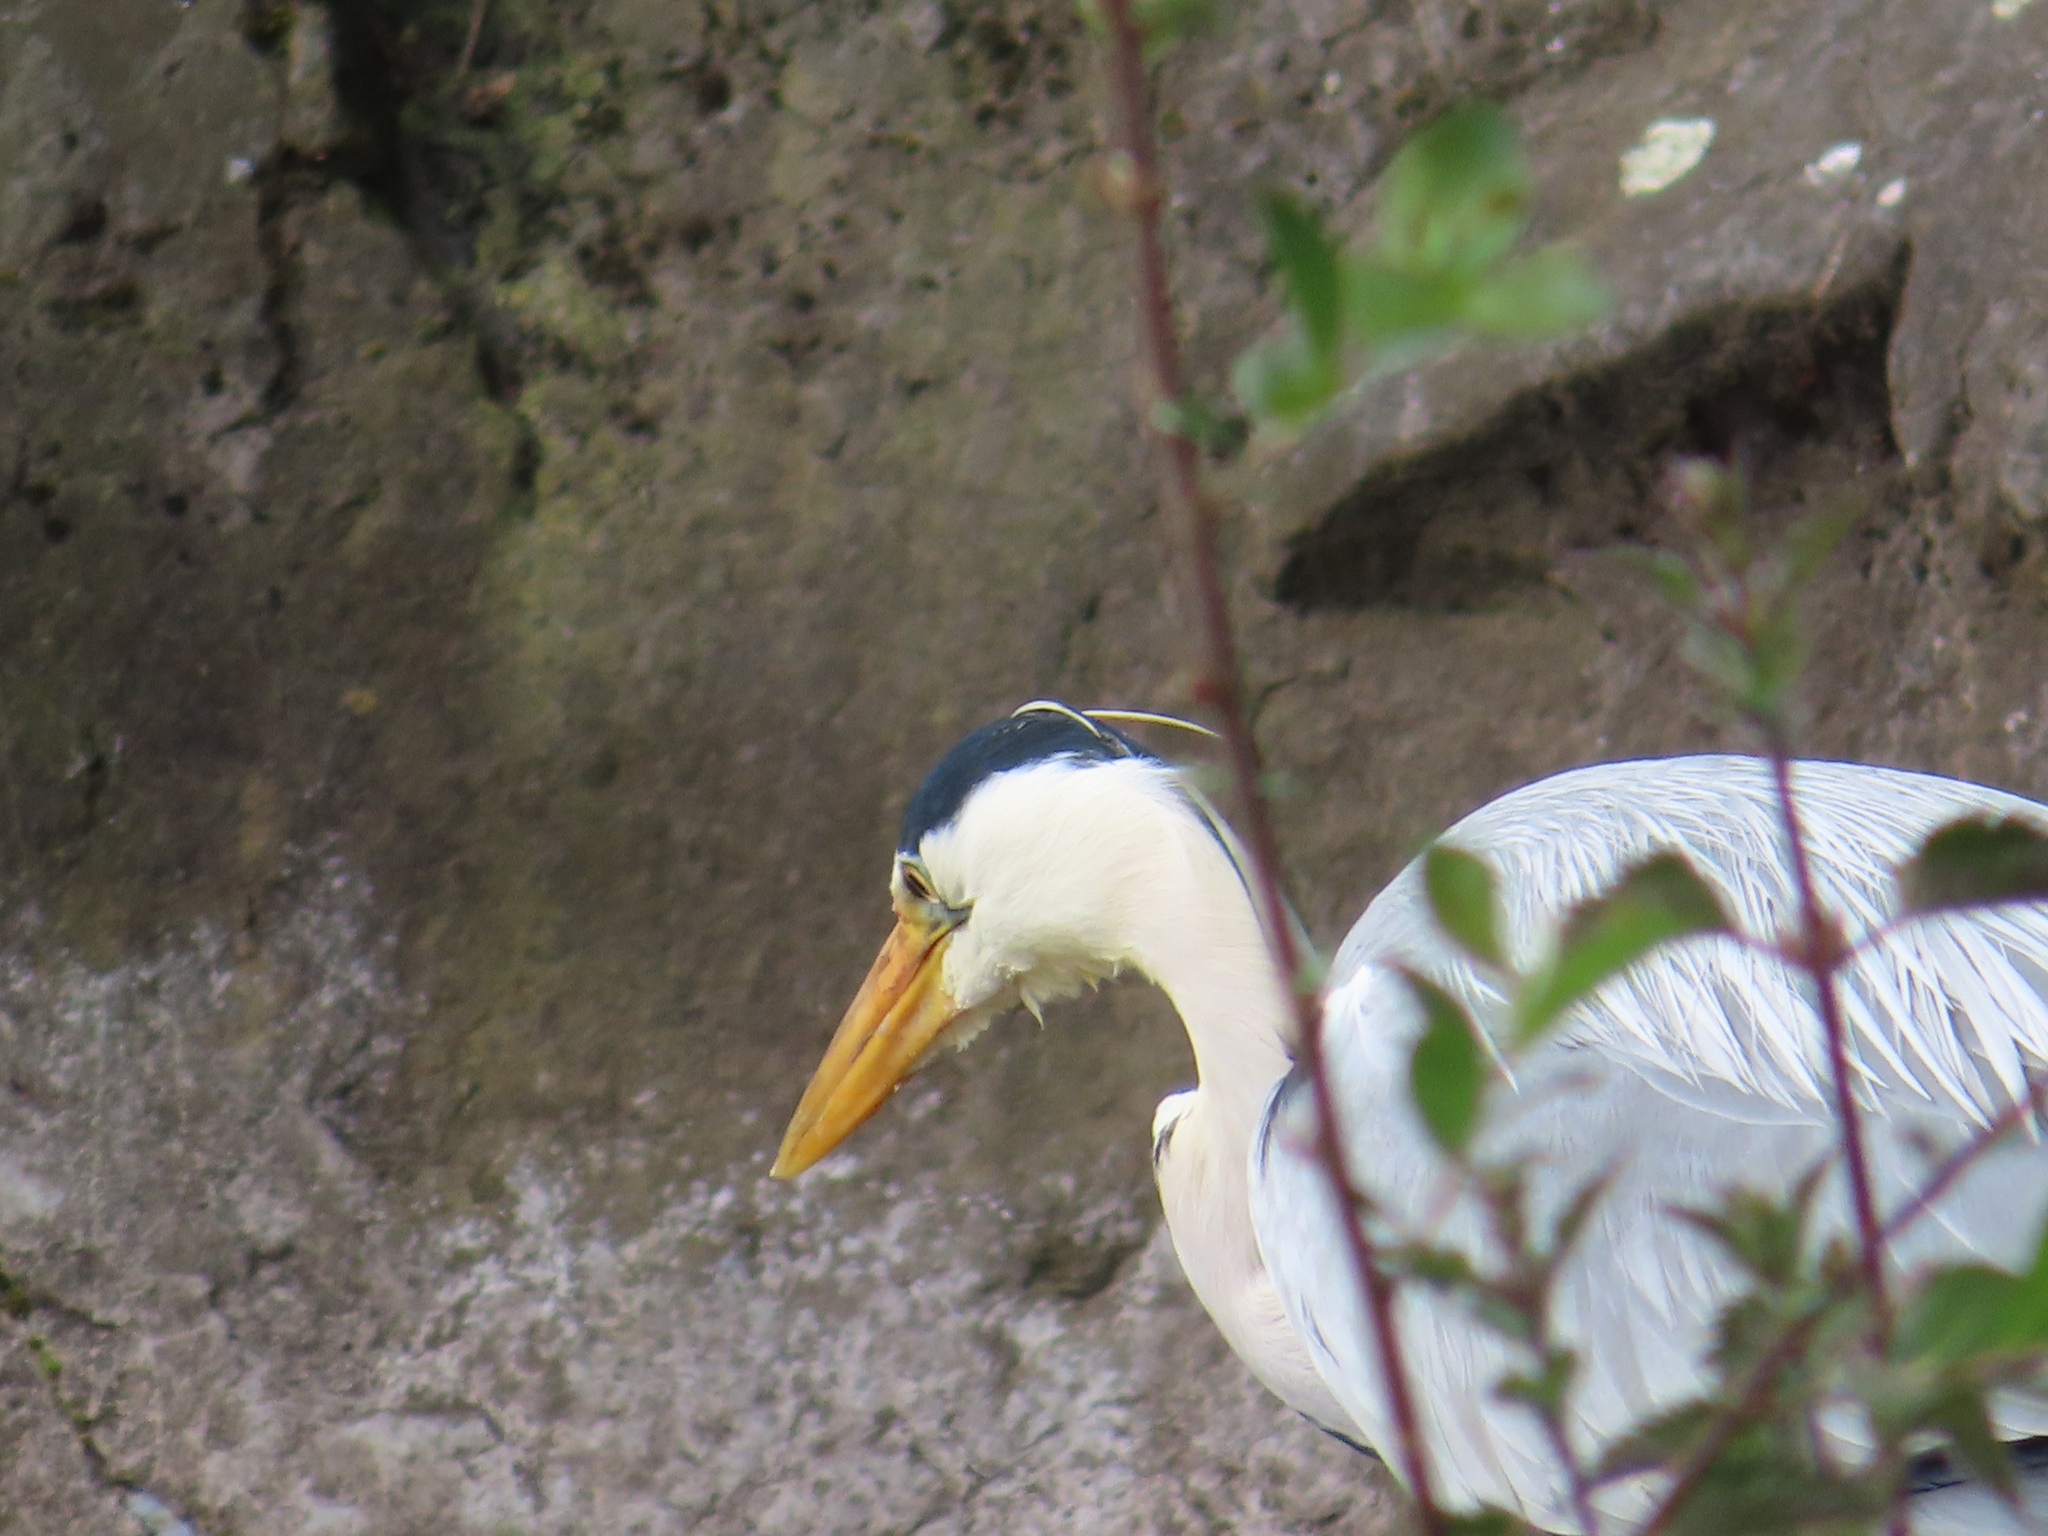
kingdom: Animalia
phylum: Chordata
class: Aves
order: Pelecaniformes
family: Ardeidae
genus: Ardea
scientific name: Ardea cinerea
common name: Grey heron
